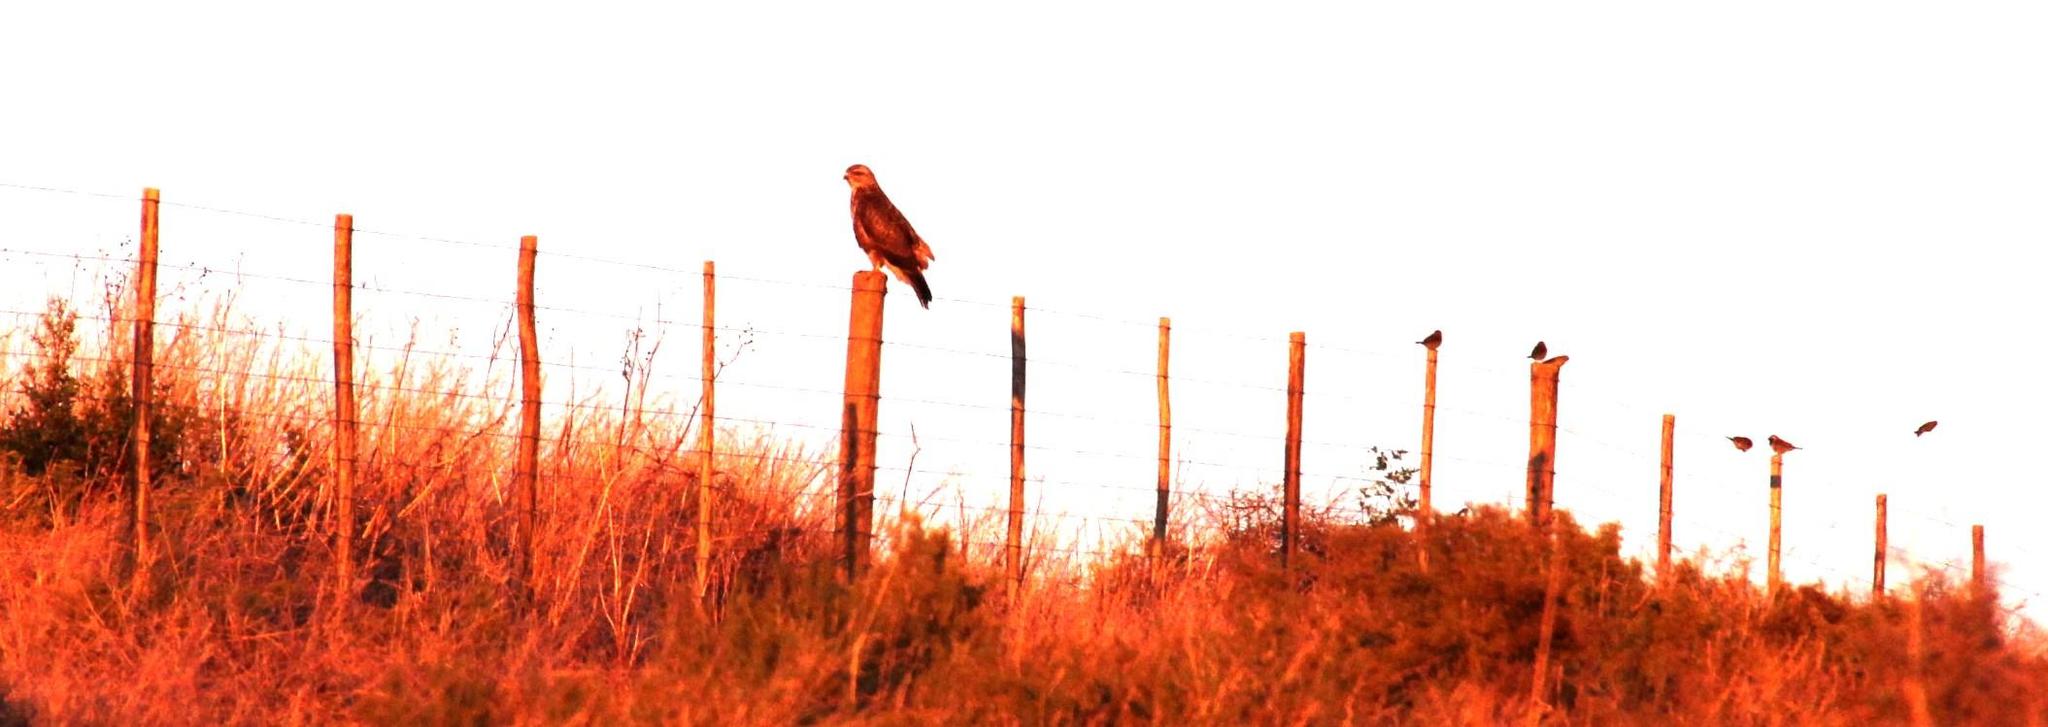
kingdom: Animalia
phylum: Chordata
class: Aves
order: Accipitriformes
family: Accipitridae
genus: Buteo
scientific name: Buteo buteo
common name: Common buzzard
